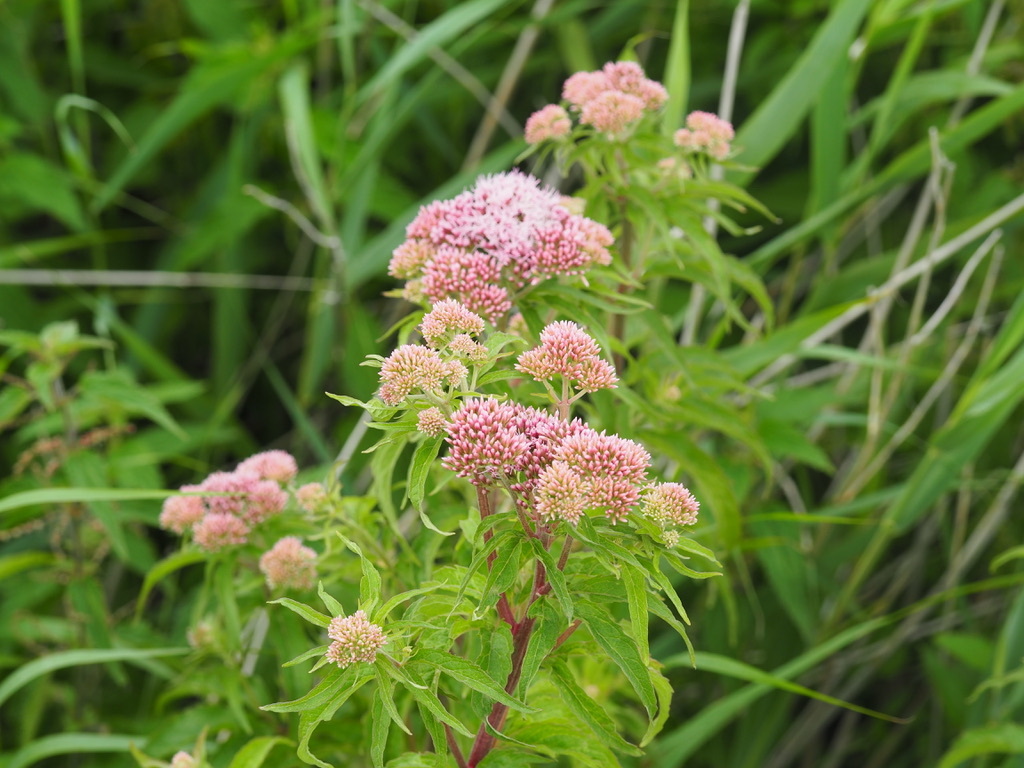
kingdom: Plantae
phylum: Tracheophyta
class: Magnoliopsida
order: Asterales
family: Asteraceae
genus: Eupatorium
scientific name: Eupatorium cannabinum
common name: Hemp-agrimony
